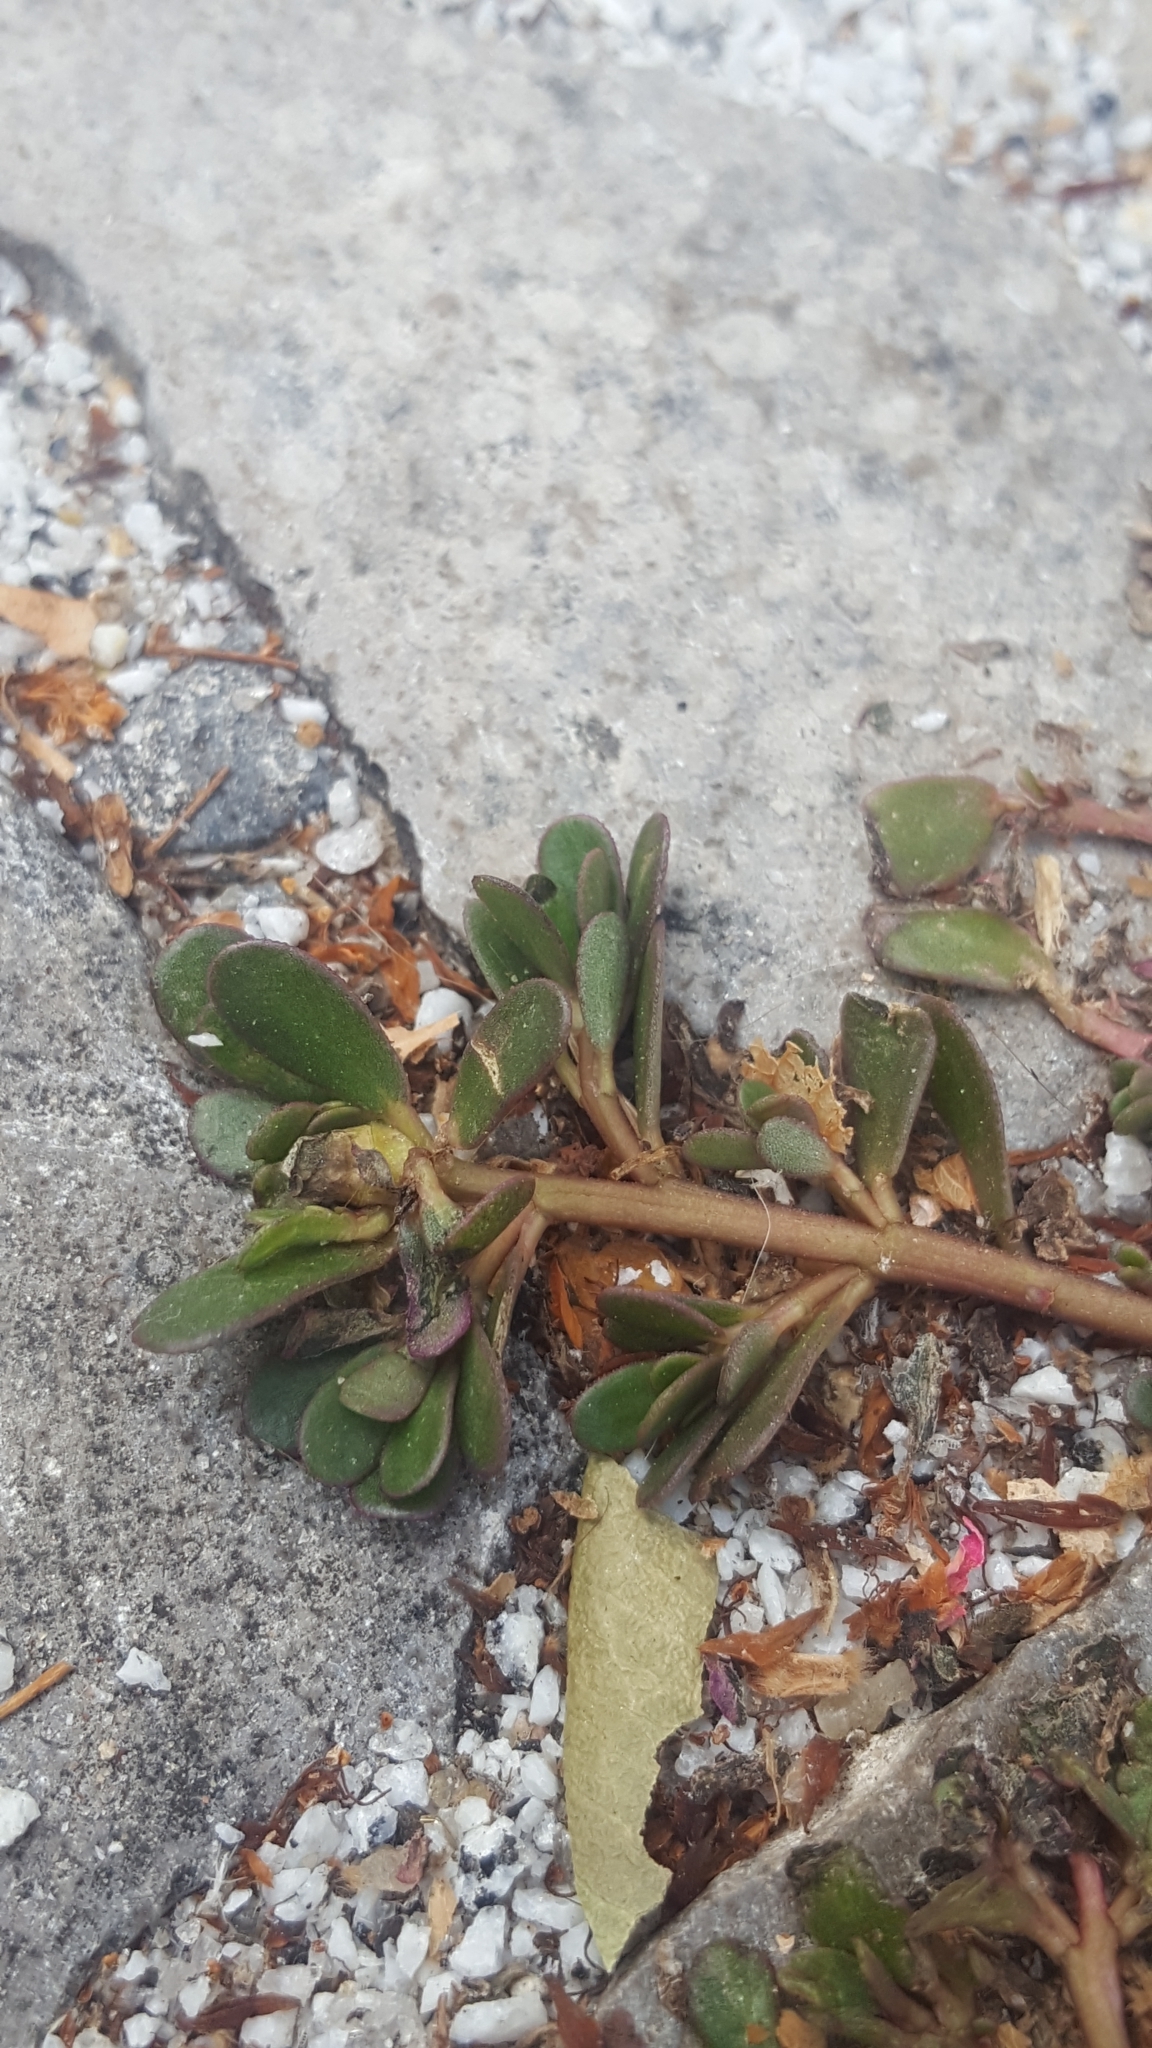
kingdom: Plantae
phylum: Tracheophyta
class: Magnoliopsida
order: Caryophyllales
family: Portulacaceae
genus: Portulaca
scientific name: Portulaca oleracea
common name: Common purslane
